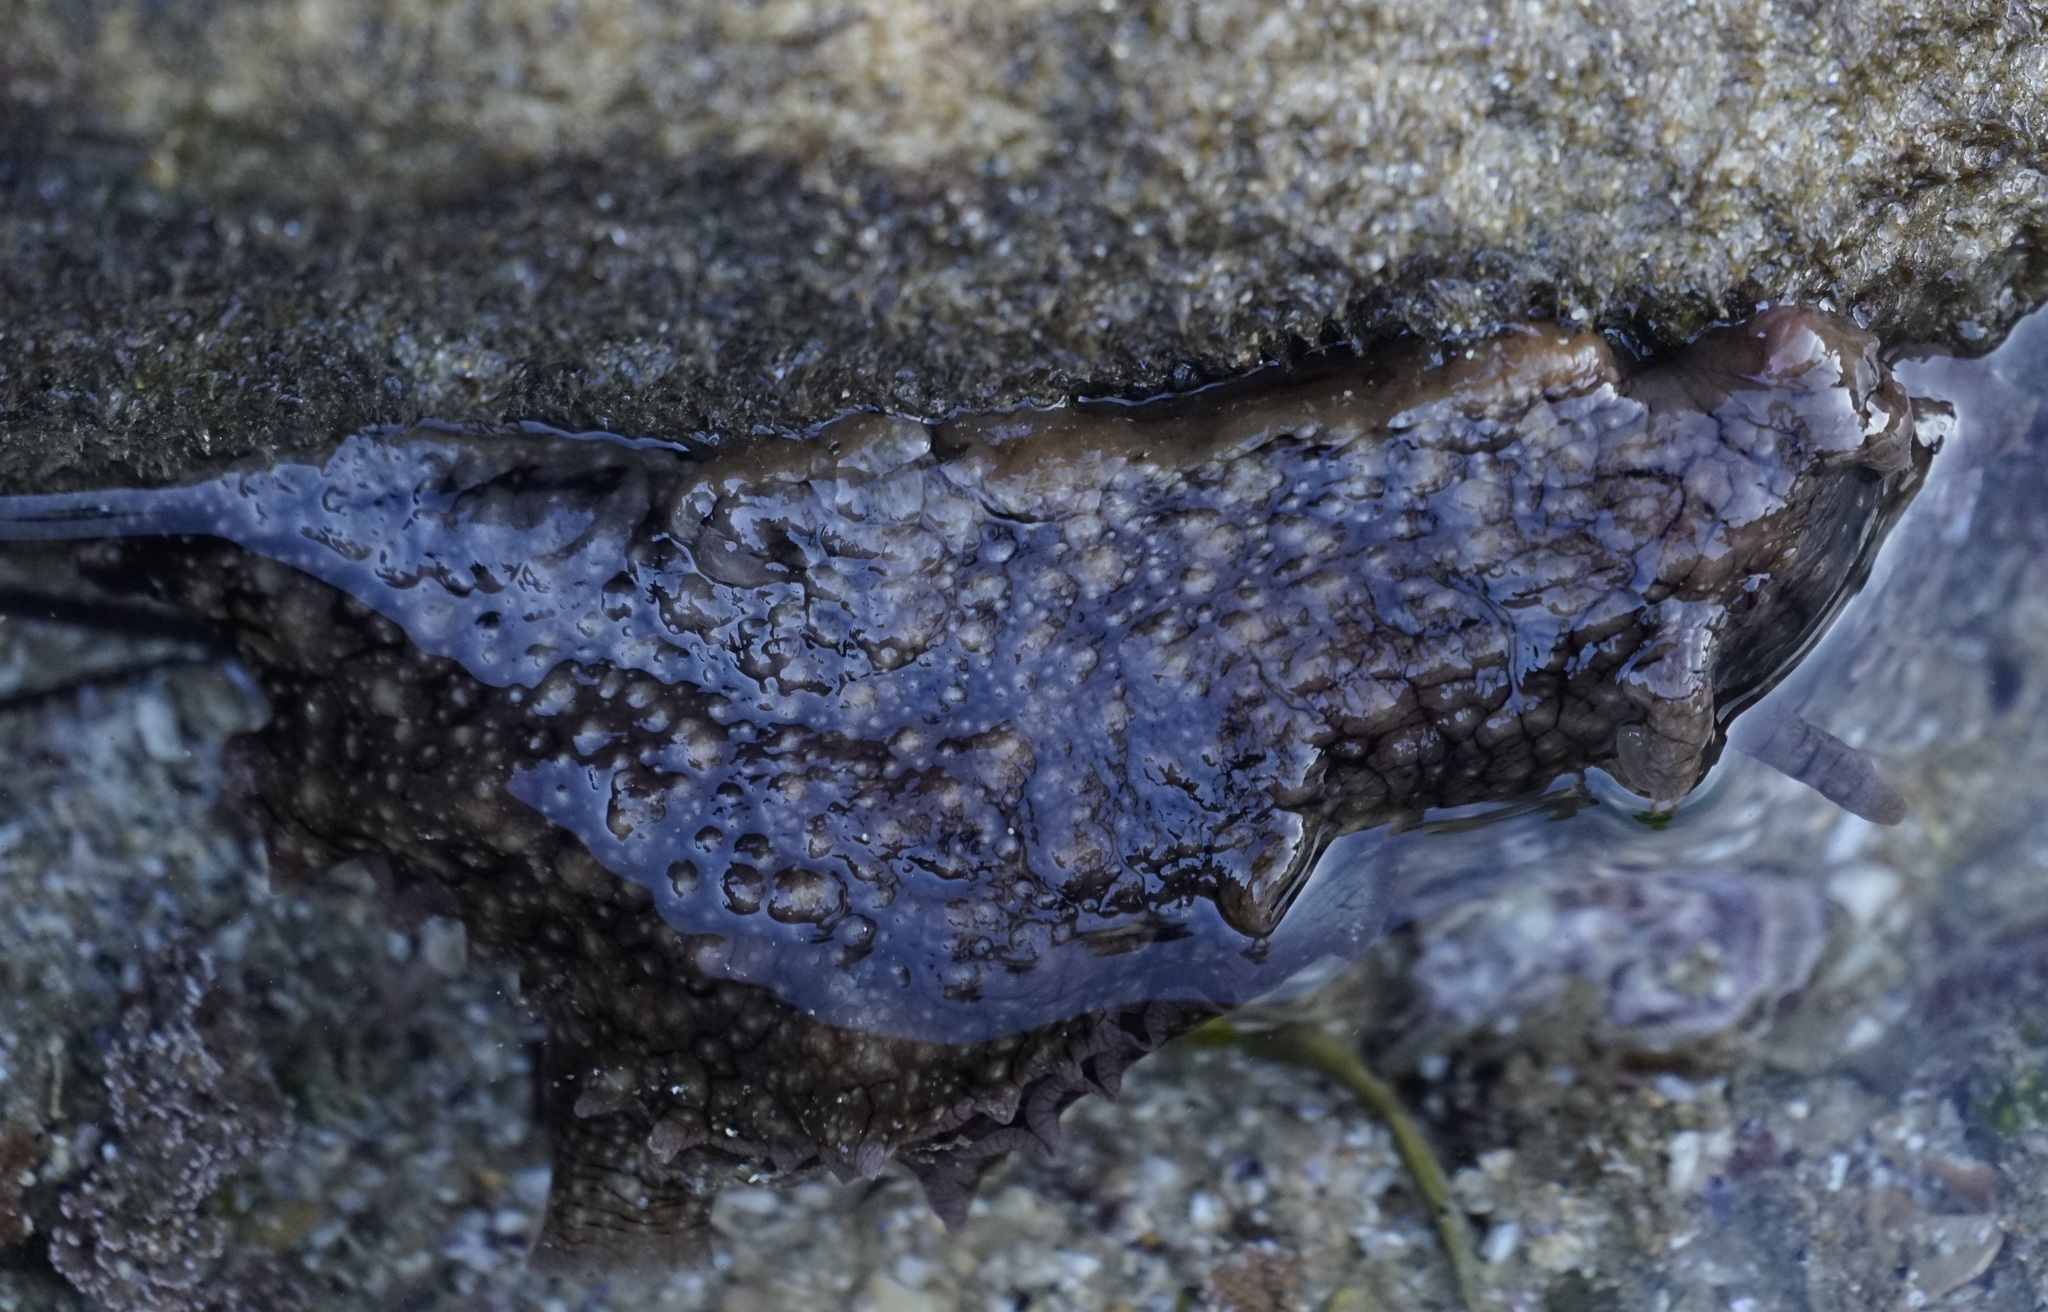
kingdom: Animalia
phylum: Mollusca
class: Gastropoda
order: Aplysiida
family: Aplysiidae
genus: Aplysia
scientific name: Aplysia argus
